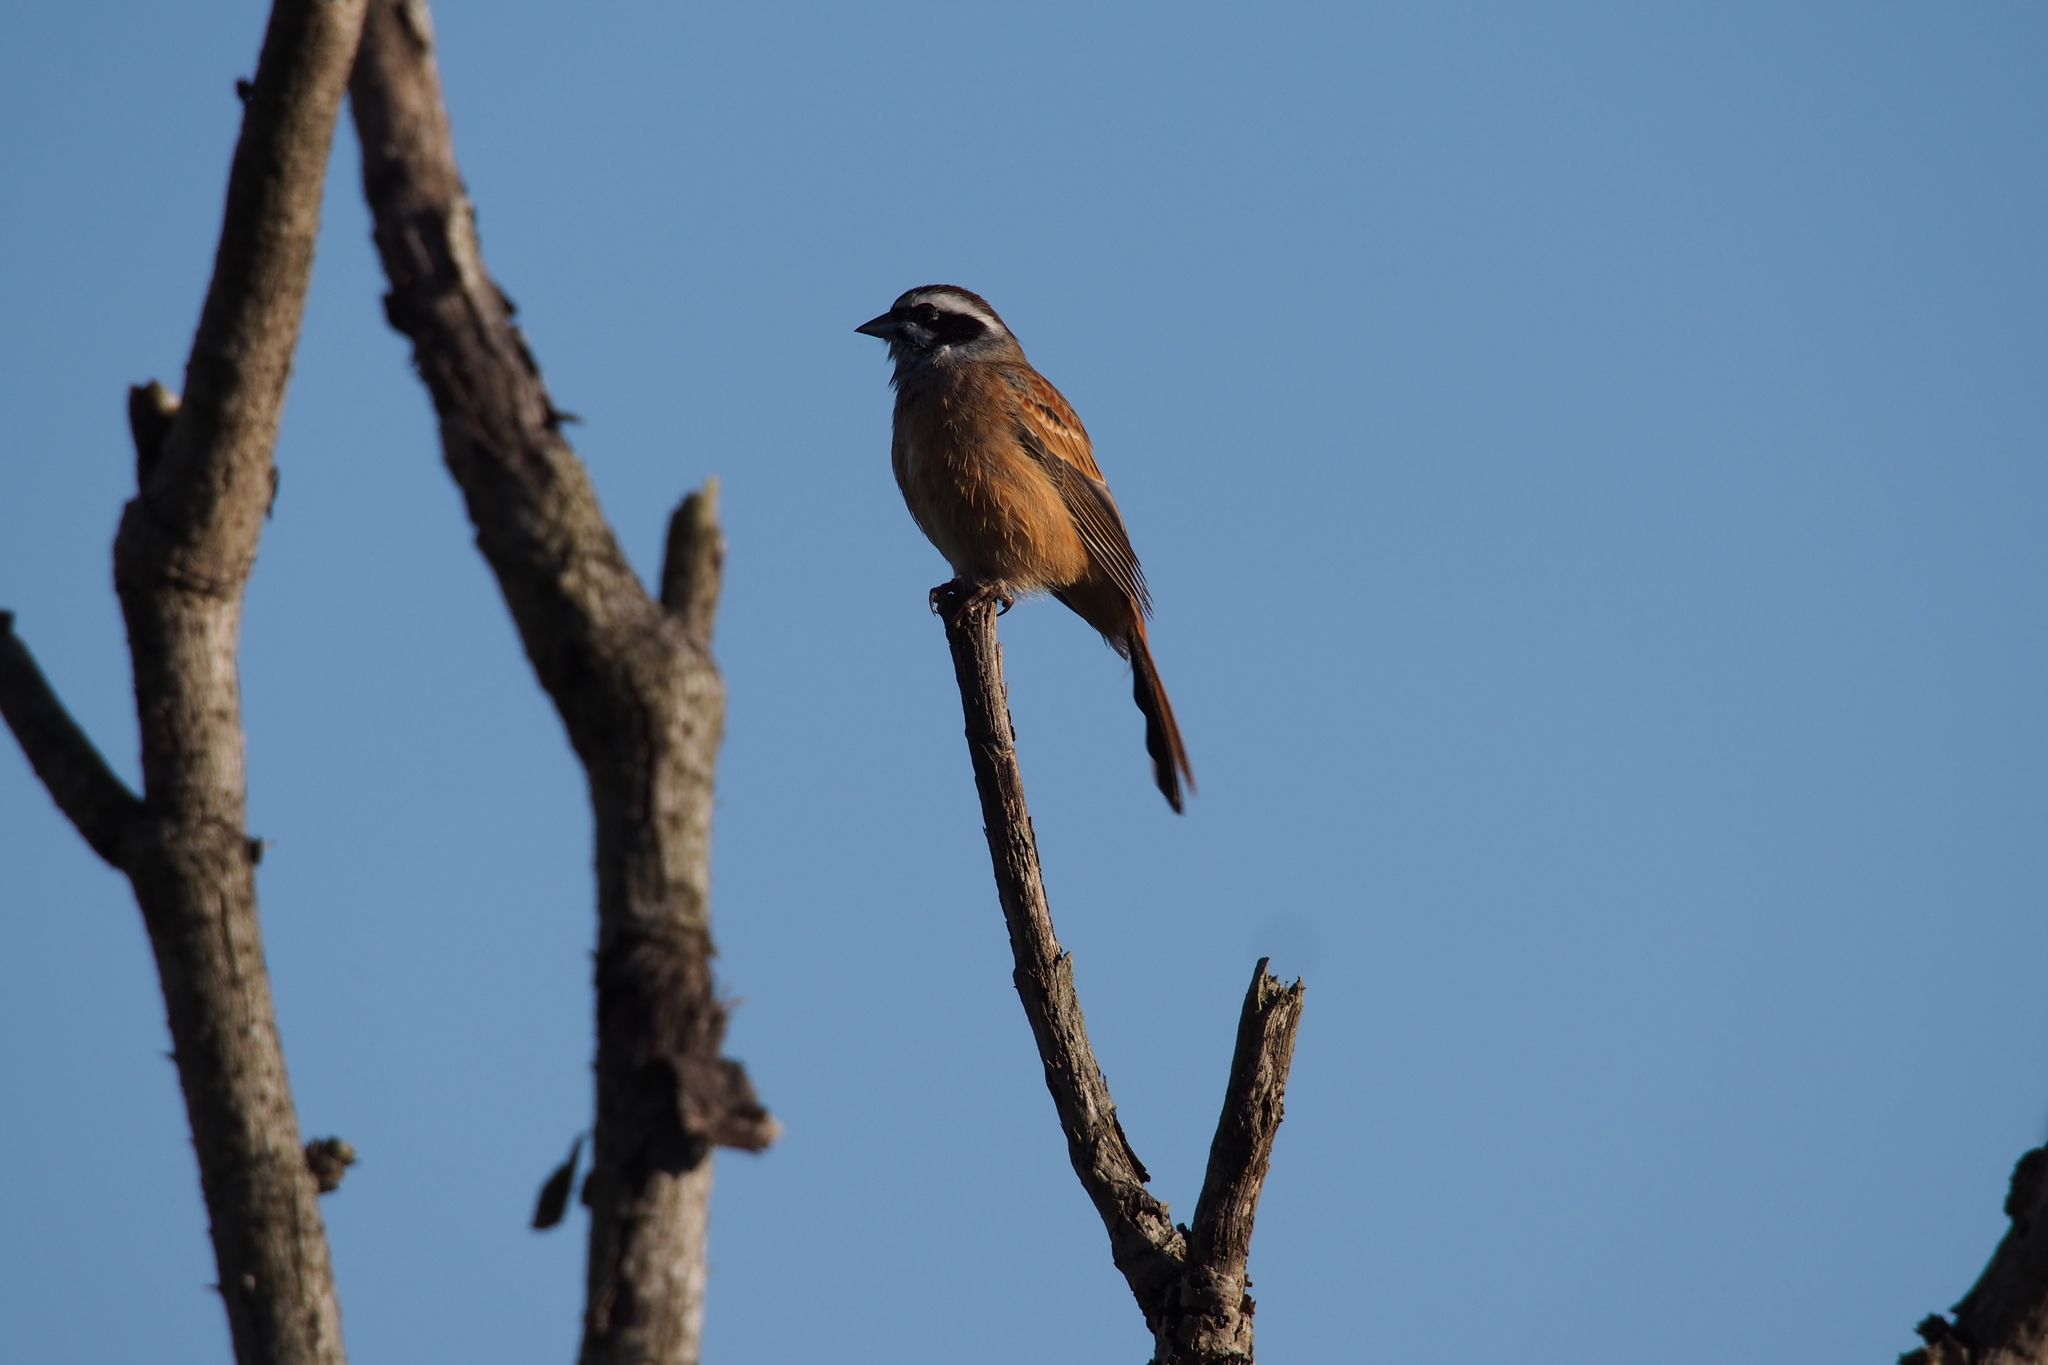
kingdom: Animalia
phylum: Chordata
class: Aves
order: Passeriformes
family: Emberizidae
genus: Emberiza
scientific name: Emberiza cioides
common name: Meadow bunting
